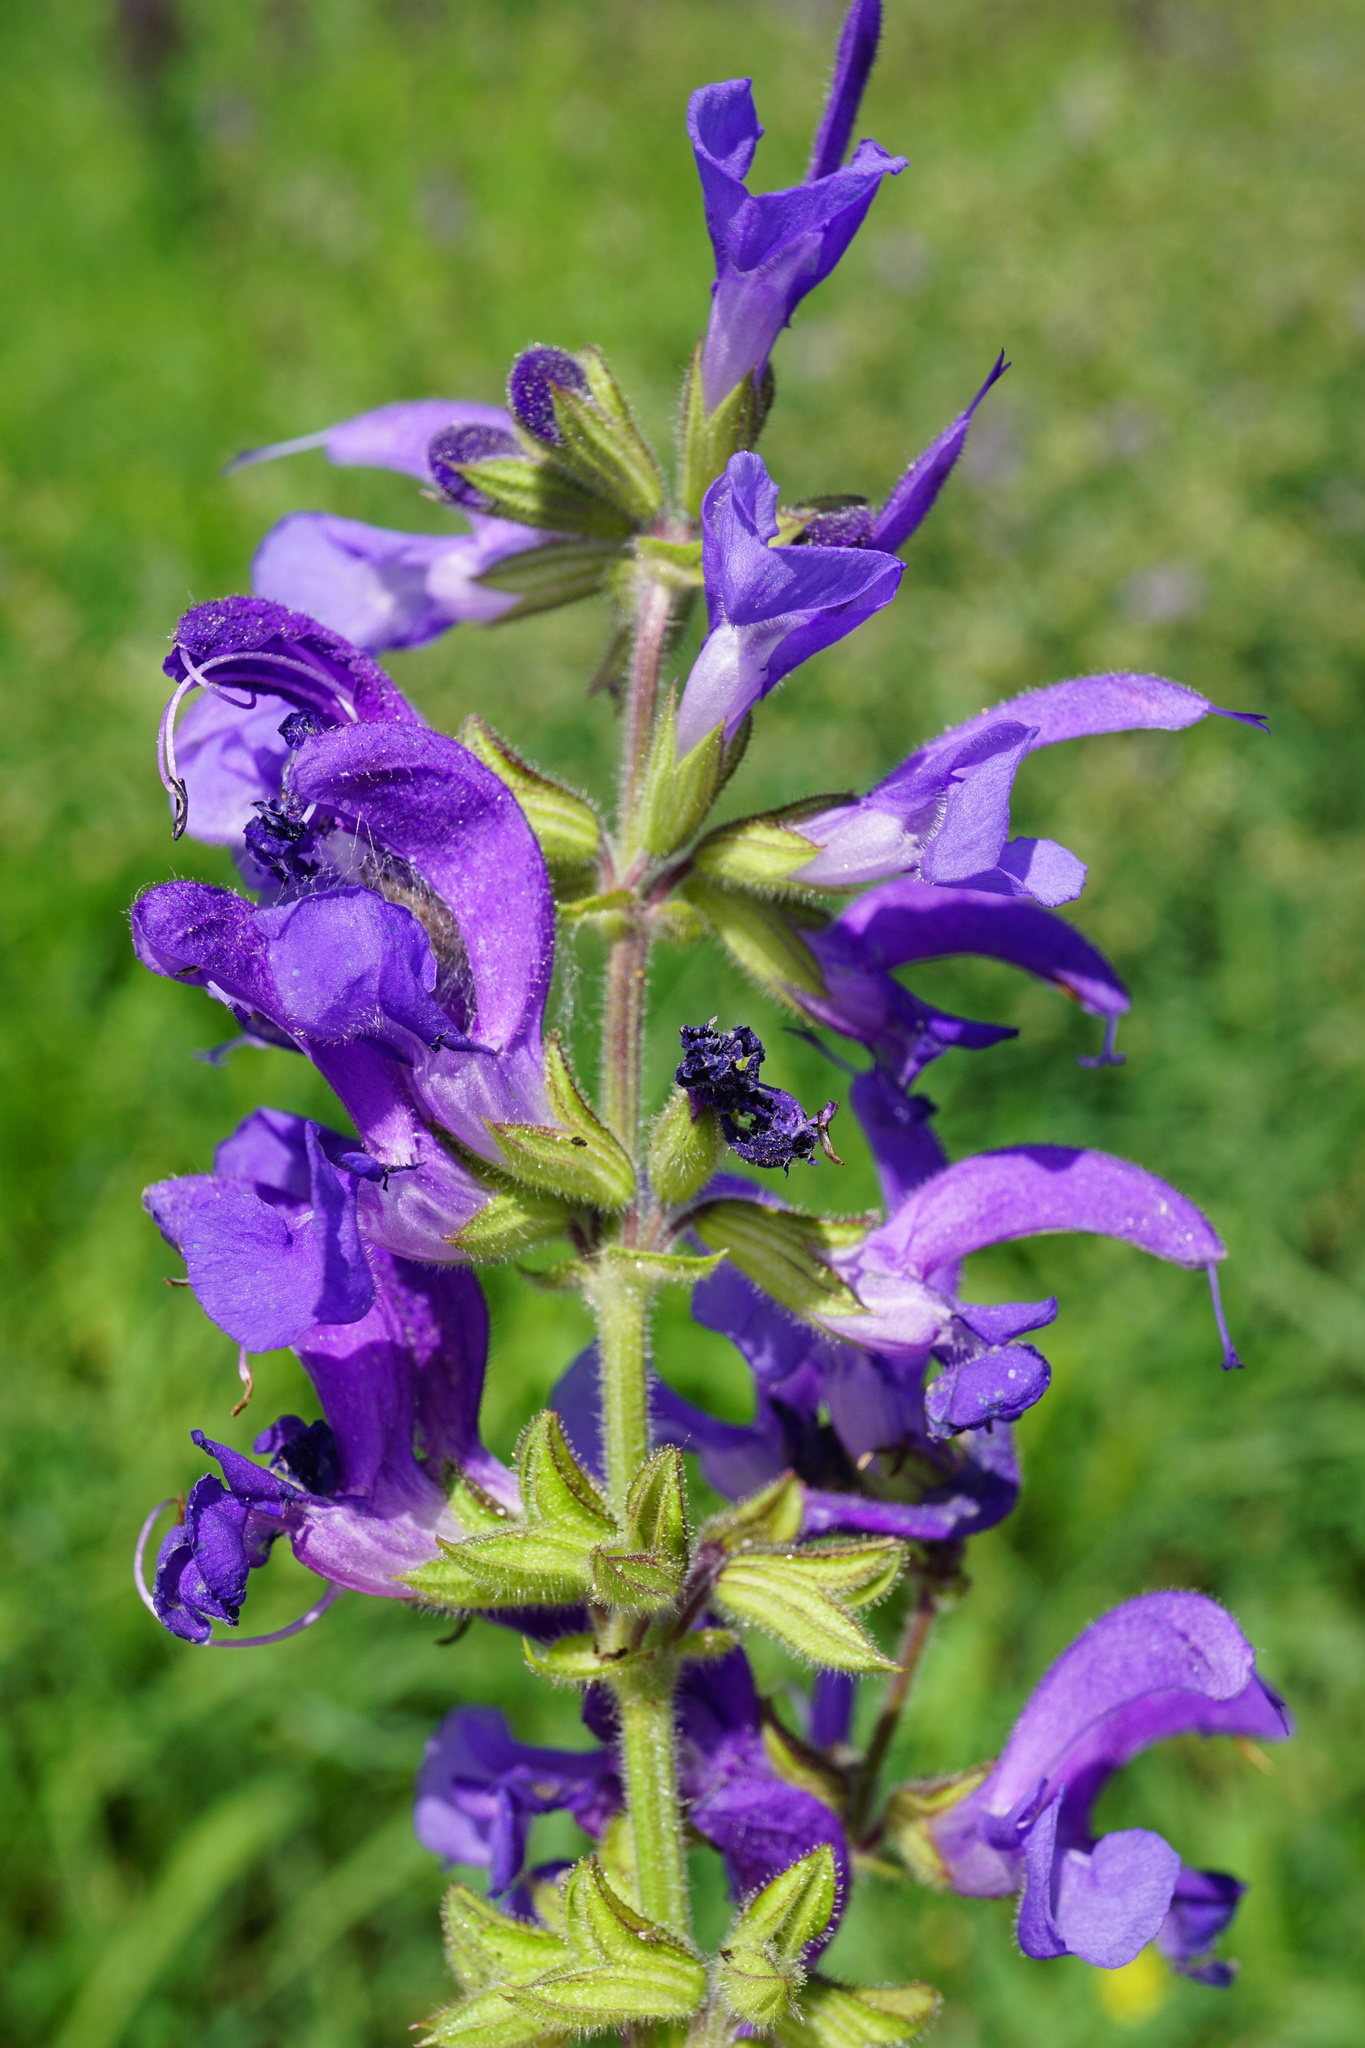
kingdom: Plantae
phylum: Tracheophyta
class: Magnoliopsida
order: Lamiales
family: Lamiaceae
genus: Salvia
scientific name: Salvia pratensis
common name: Meadow sage
